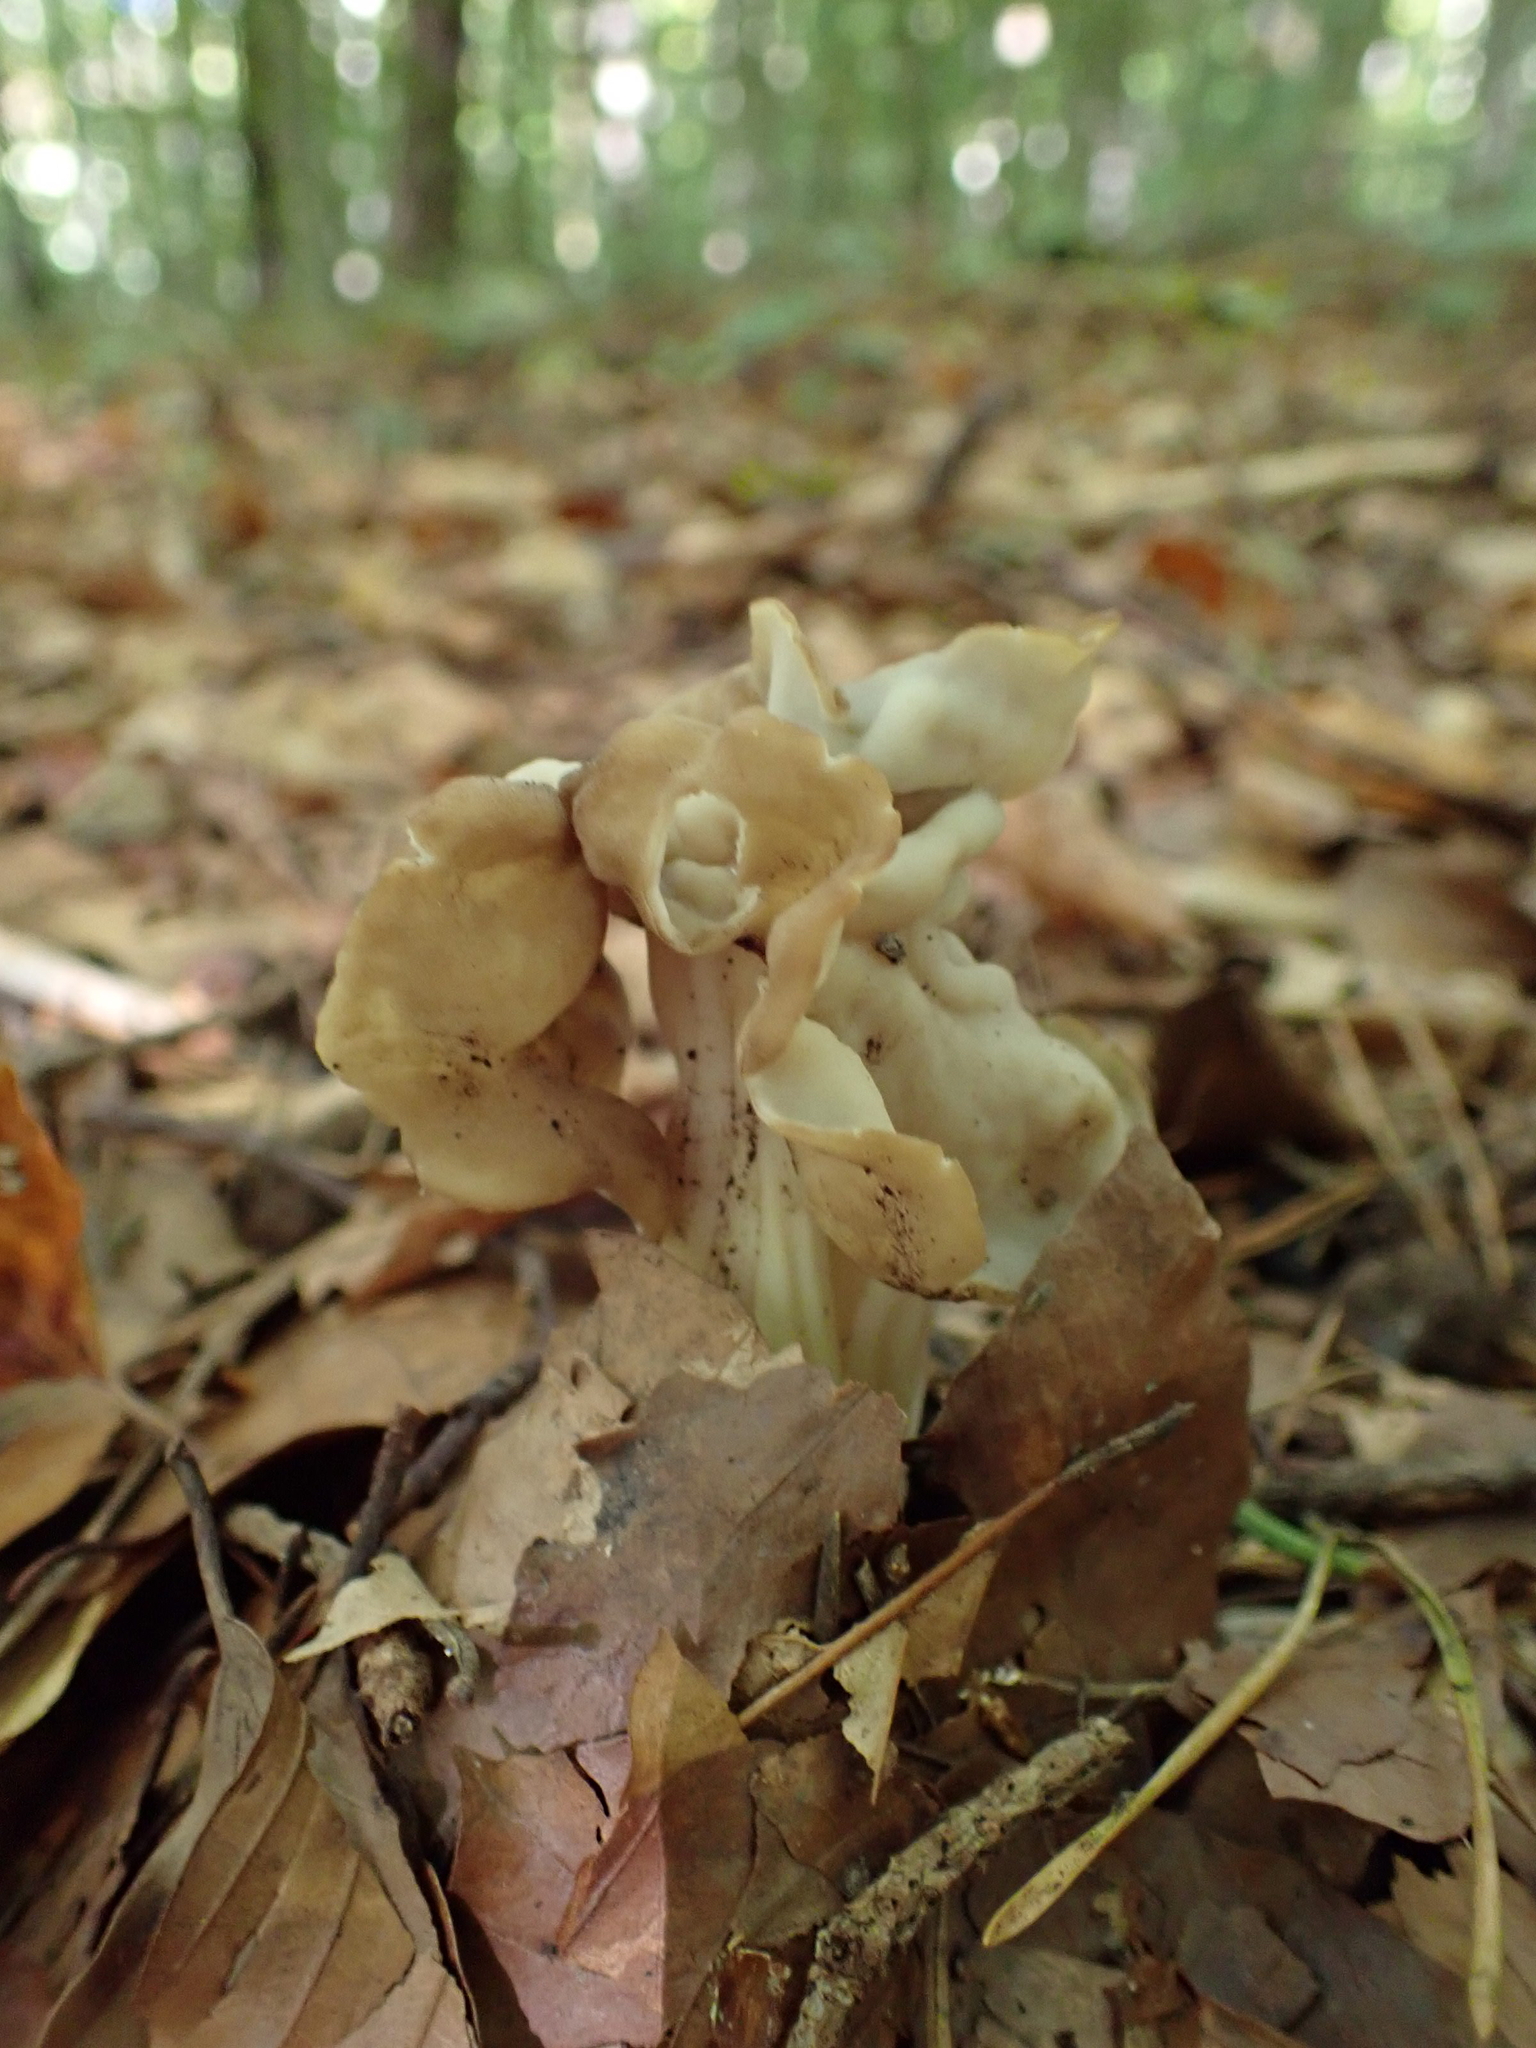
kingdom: Fungi
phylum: Ascomycota
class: Pezizomycetes
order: Pezizales
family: Helvellaceae
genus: Helvella
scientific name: Helvella crispa
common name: White saddle
